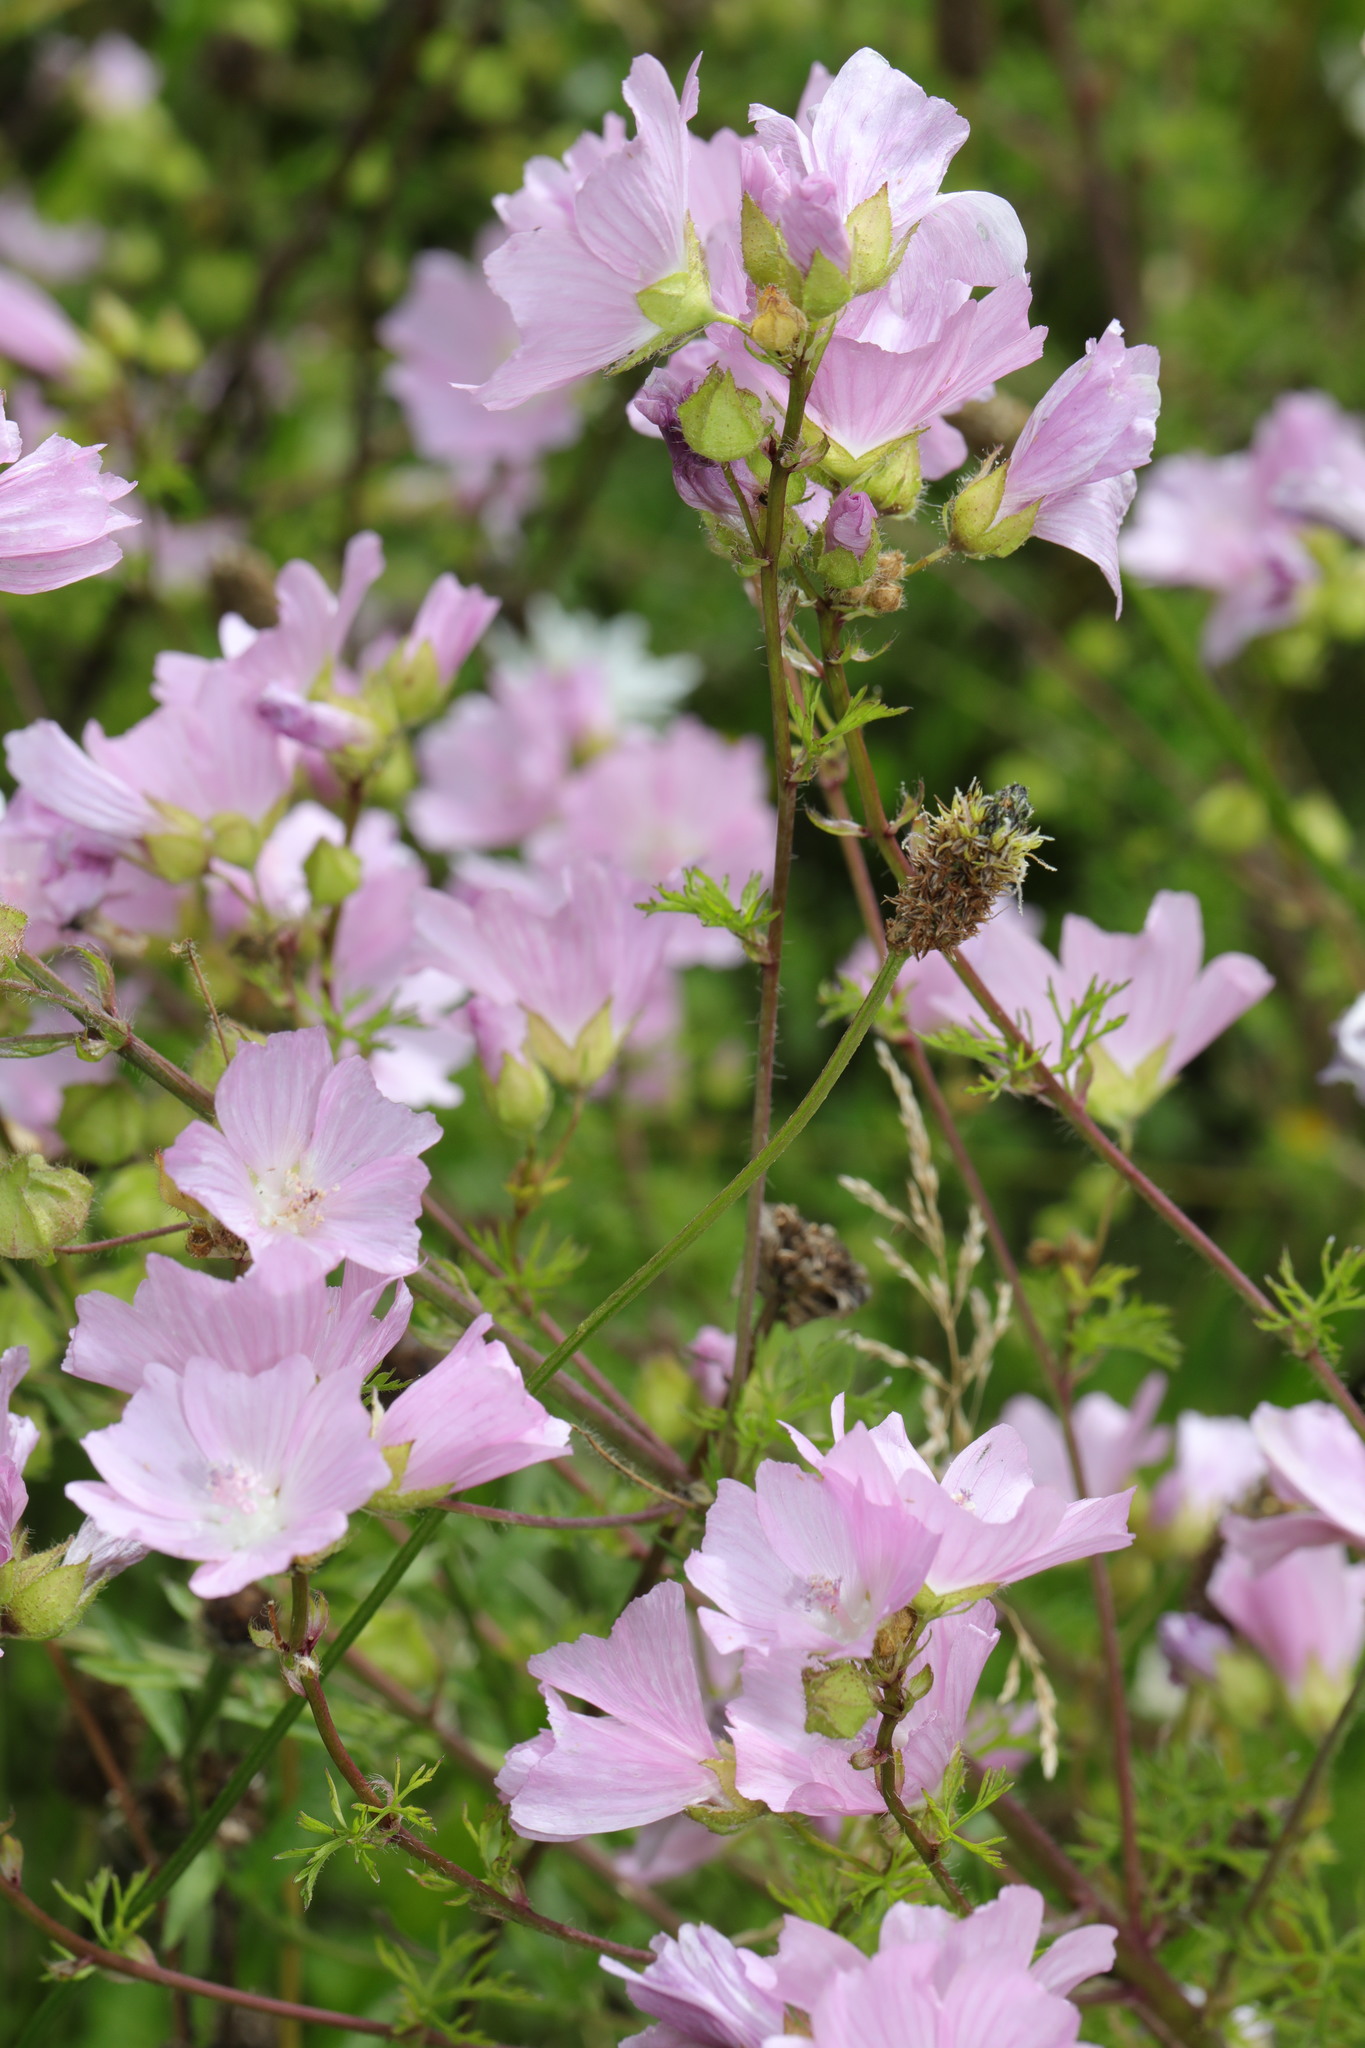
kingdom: Plantae
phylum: Tracheophyta
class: Magnoliopsida
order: Malvales
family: Malvaceae
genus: Malva
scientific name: Malva moschata
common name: Musk mallow
